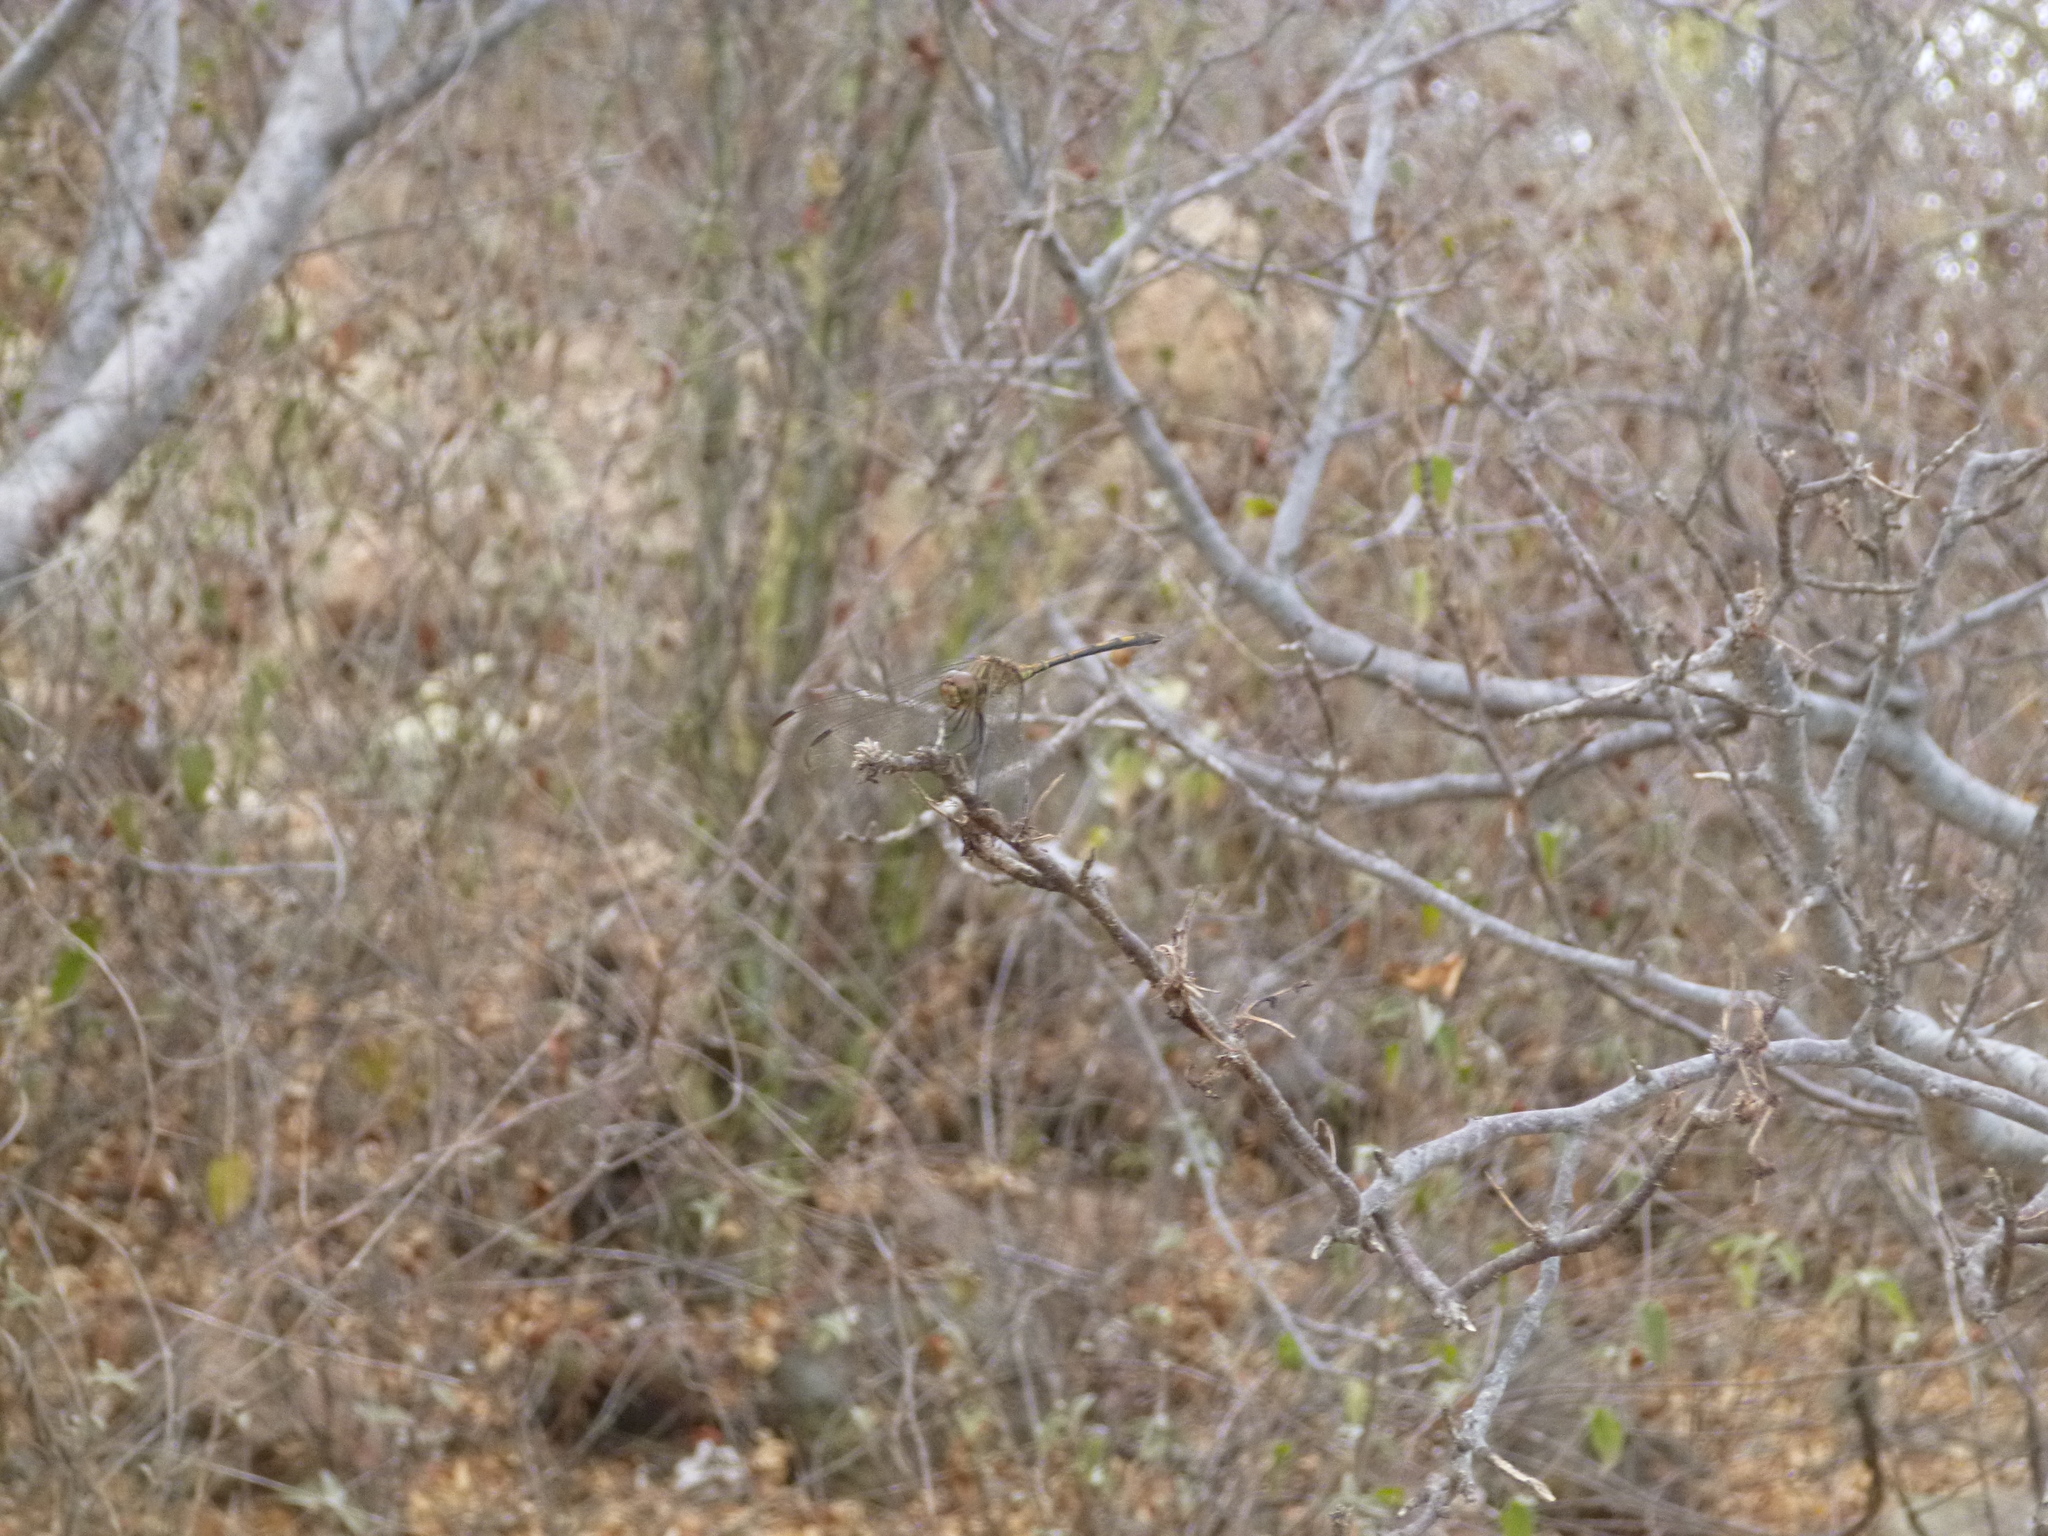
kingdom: Animalia
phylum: Arthropoda
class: Insecta
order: Odonata
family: Libellulidae
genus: Dythemis
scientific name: Dythemis sterilis
